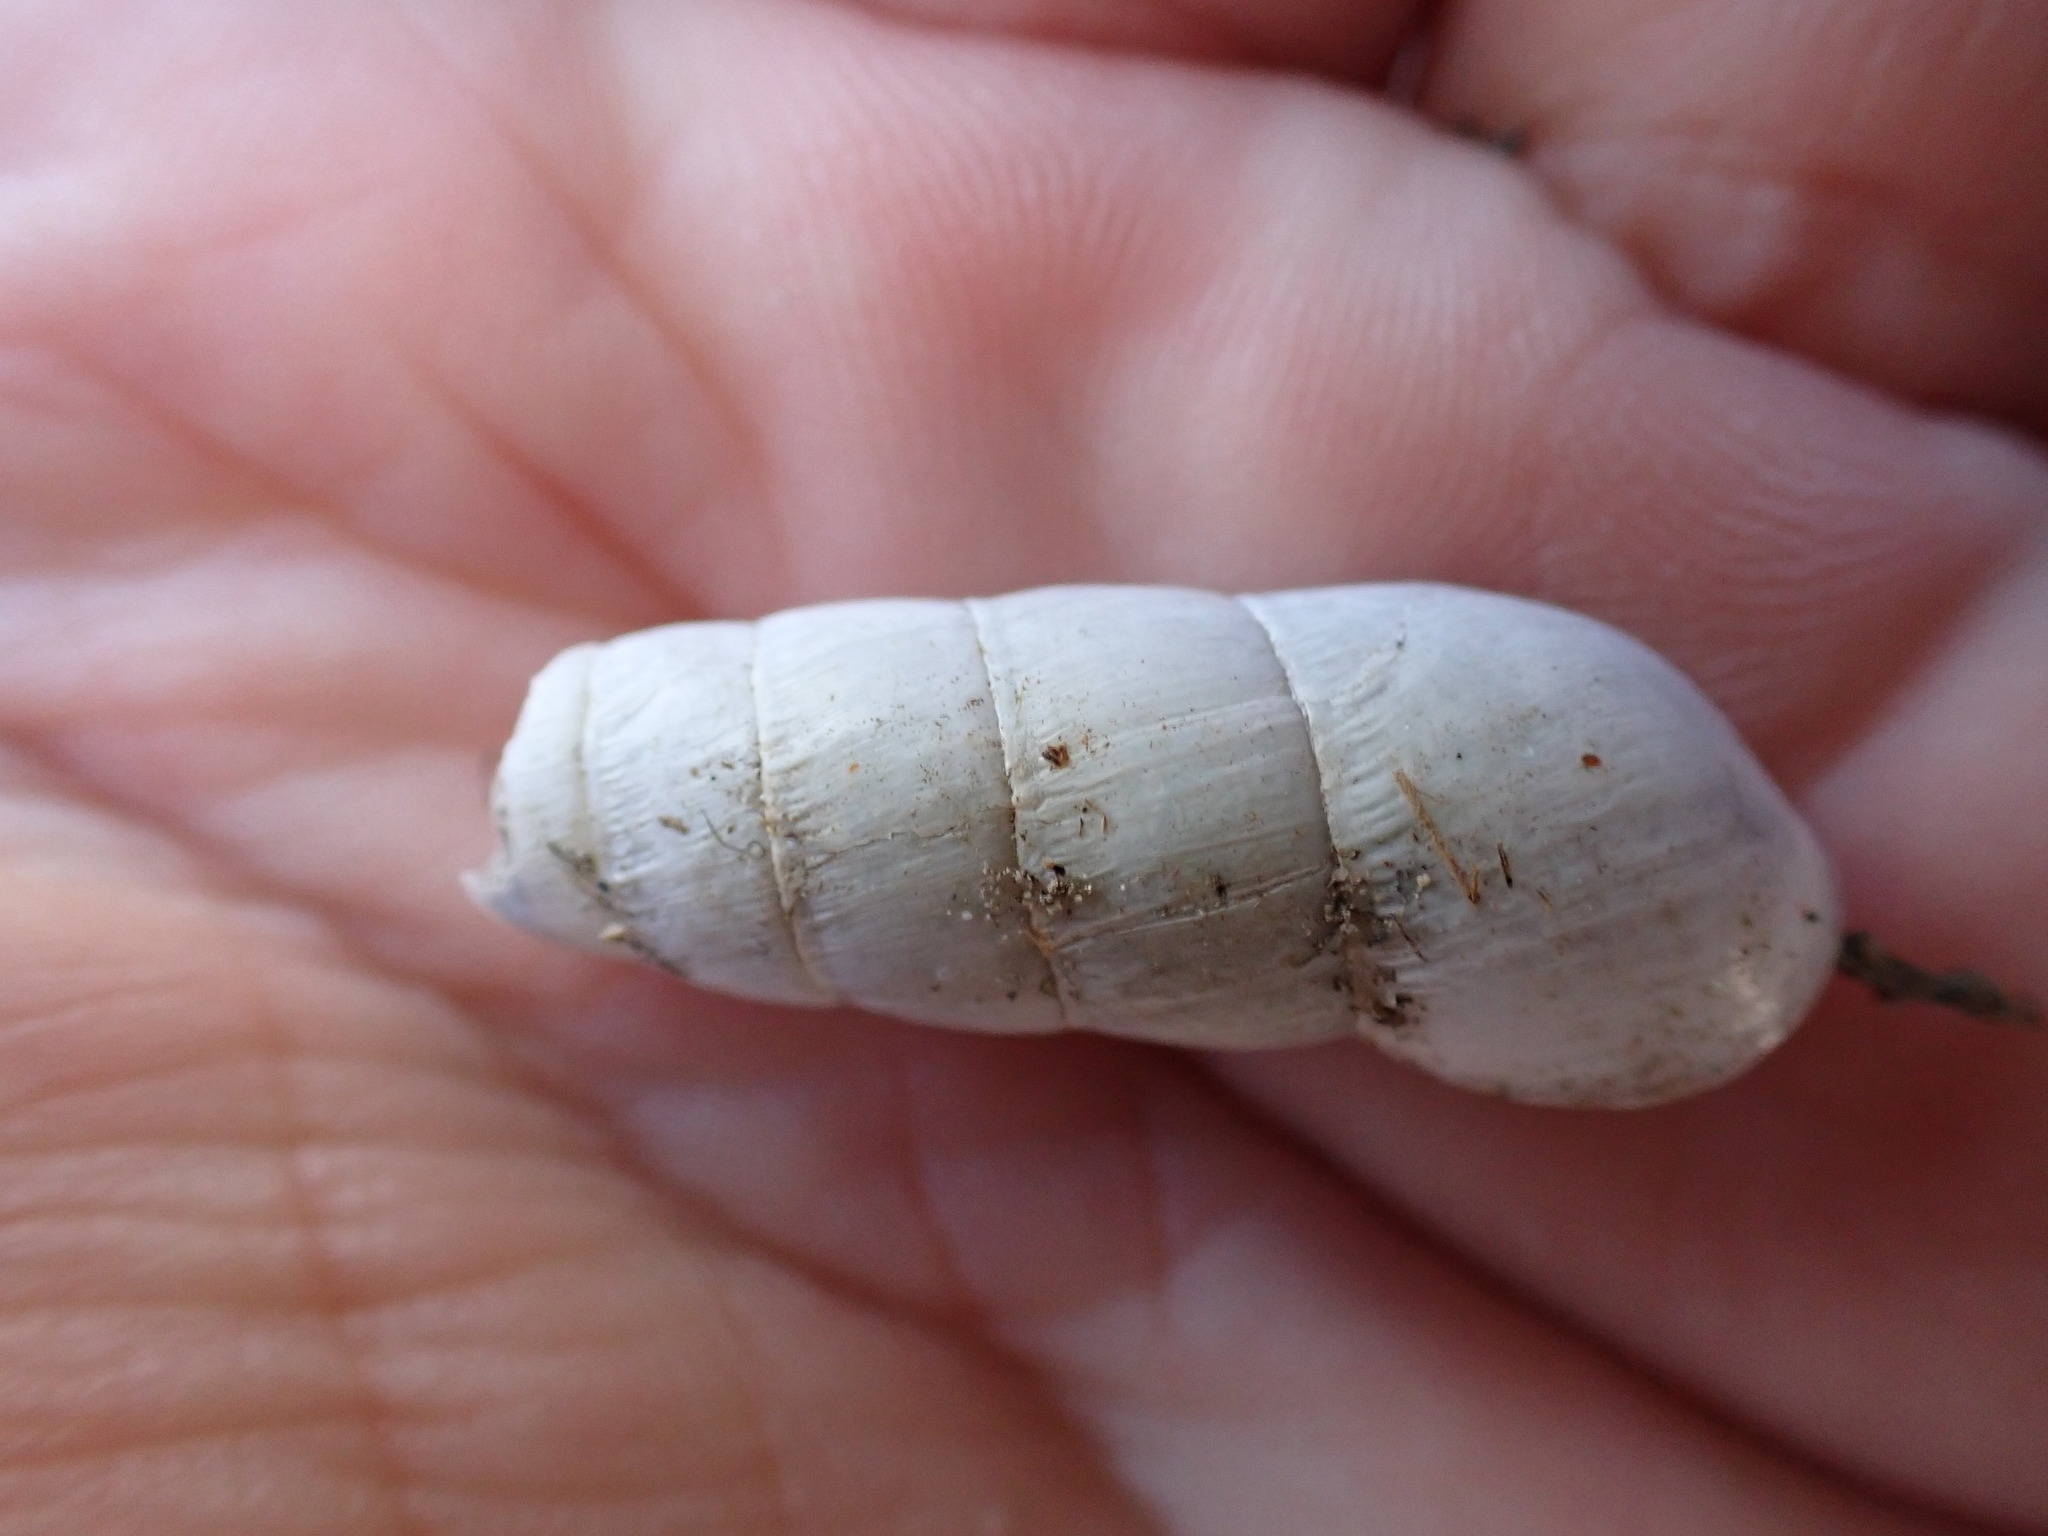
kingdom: Animalia
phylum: Mollusca
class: Gastropoda
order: Stylommatophora
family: Achatinidae
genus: Rumina
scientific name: Rumina decollata
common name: Decollate snail
